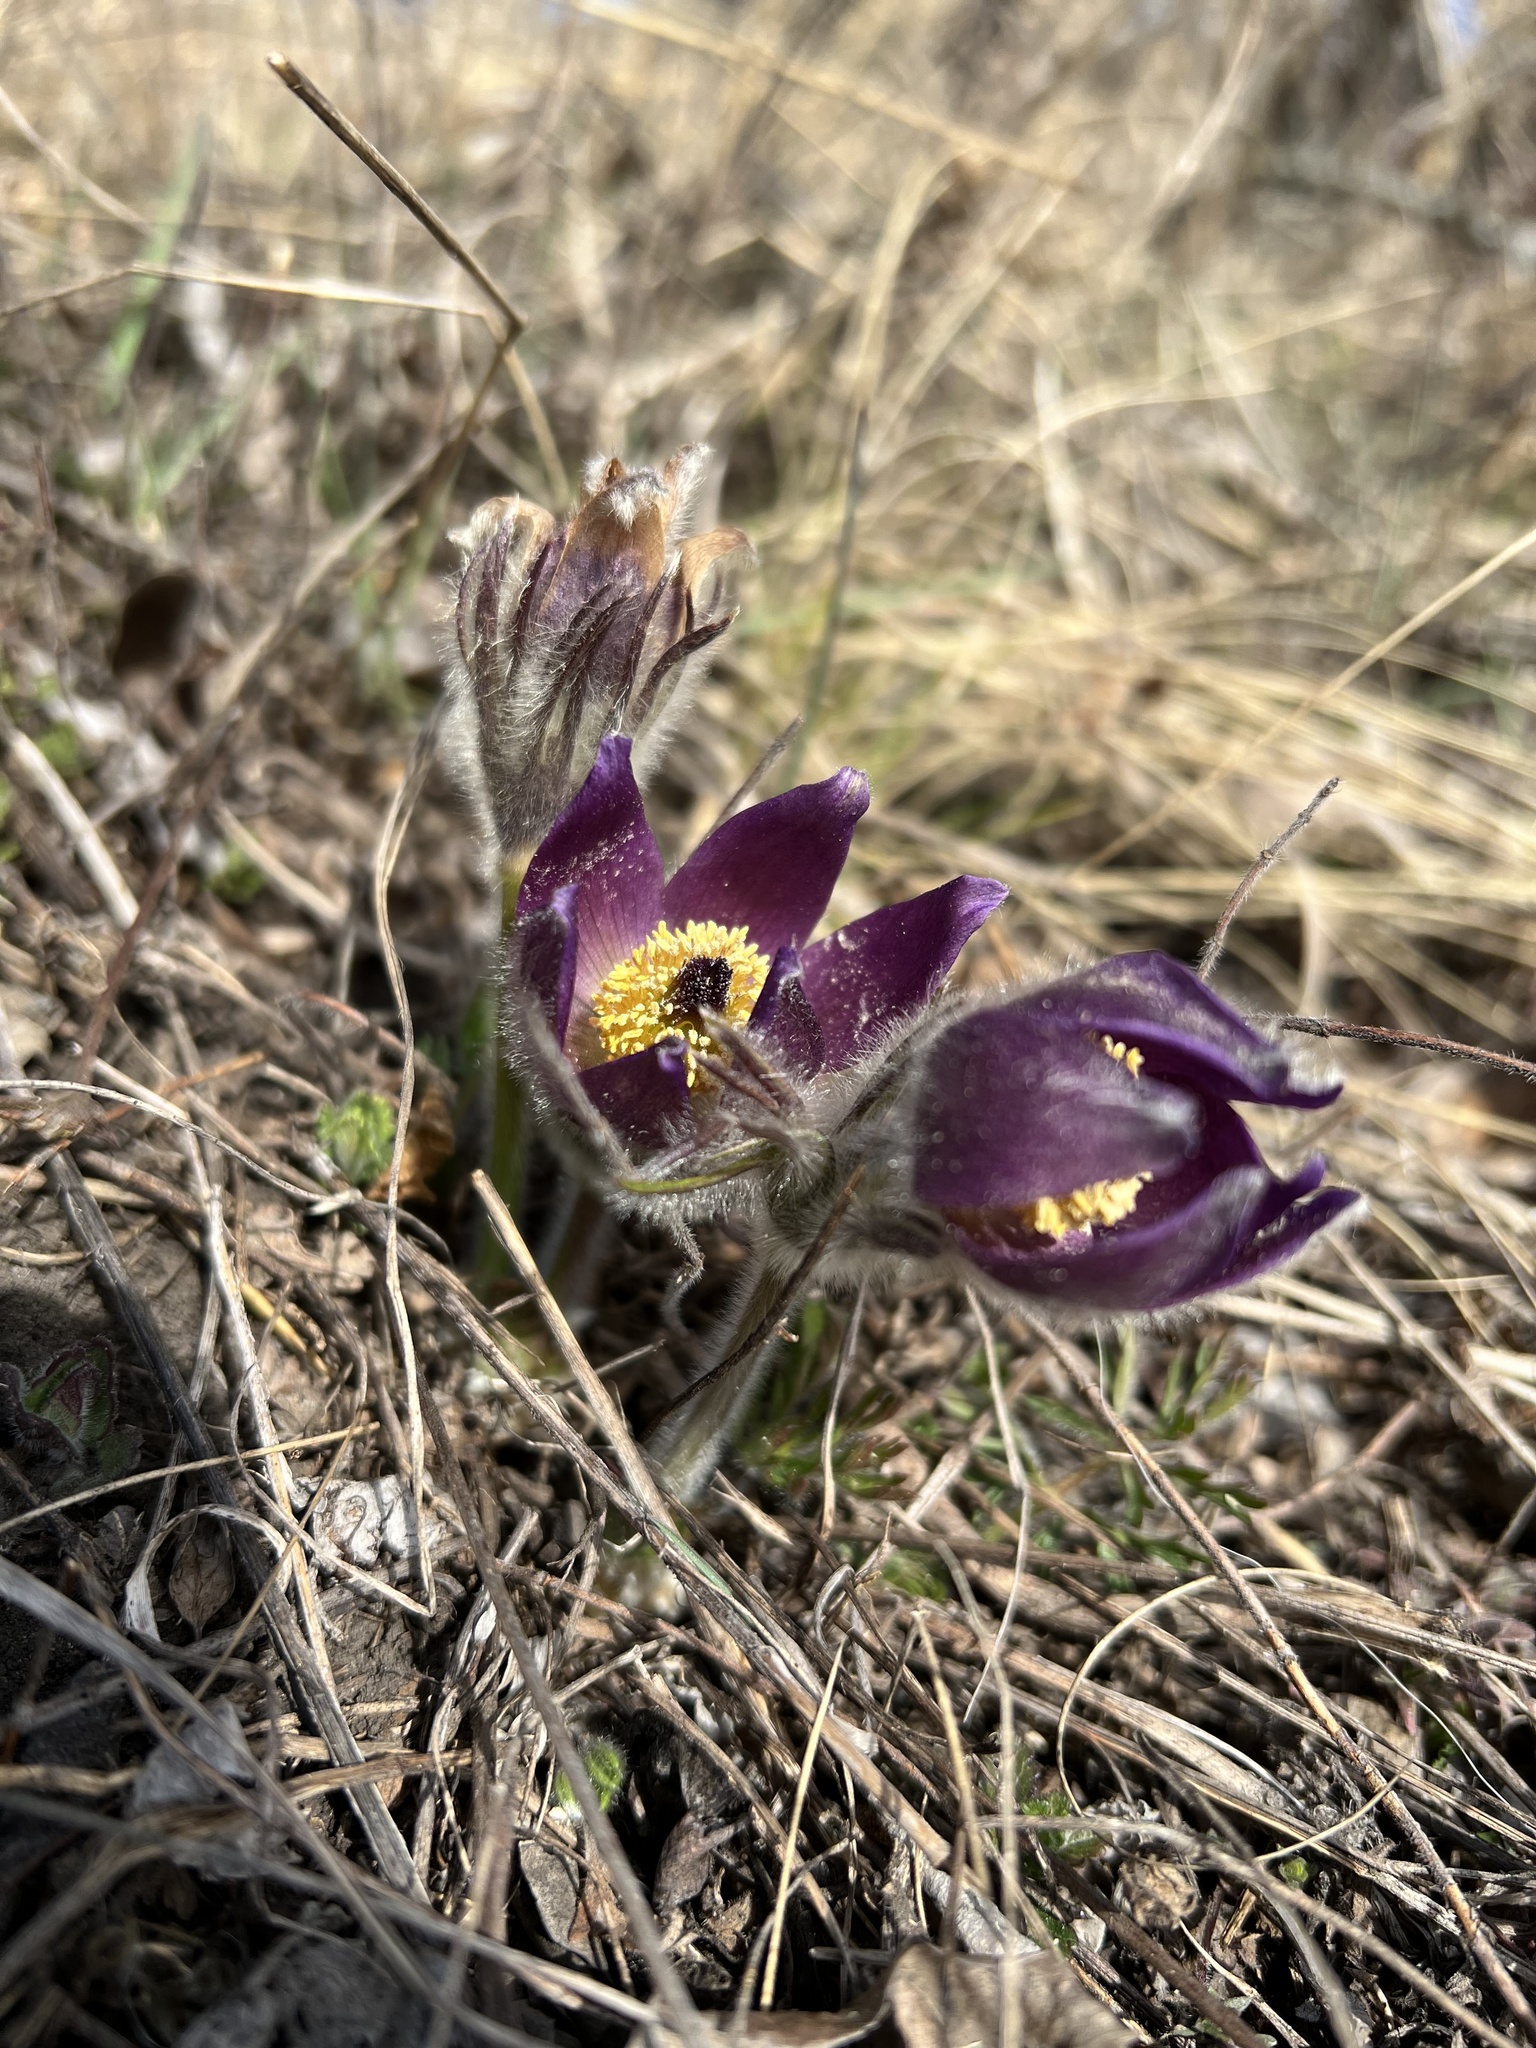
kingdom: Plantae
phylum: Tracheophyta
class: Magnoliopsida
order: Ranunculales
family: Ranunculaceae
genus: Pulsatilla
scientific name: Pulsatilla montana
